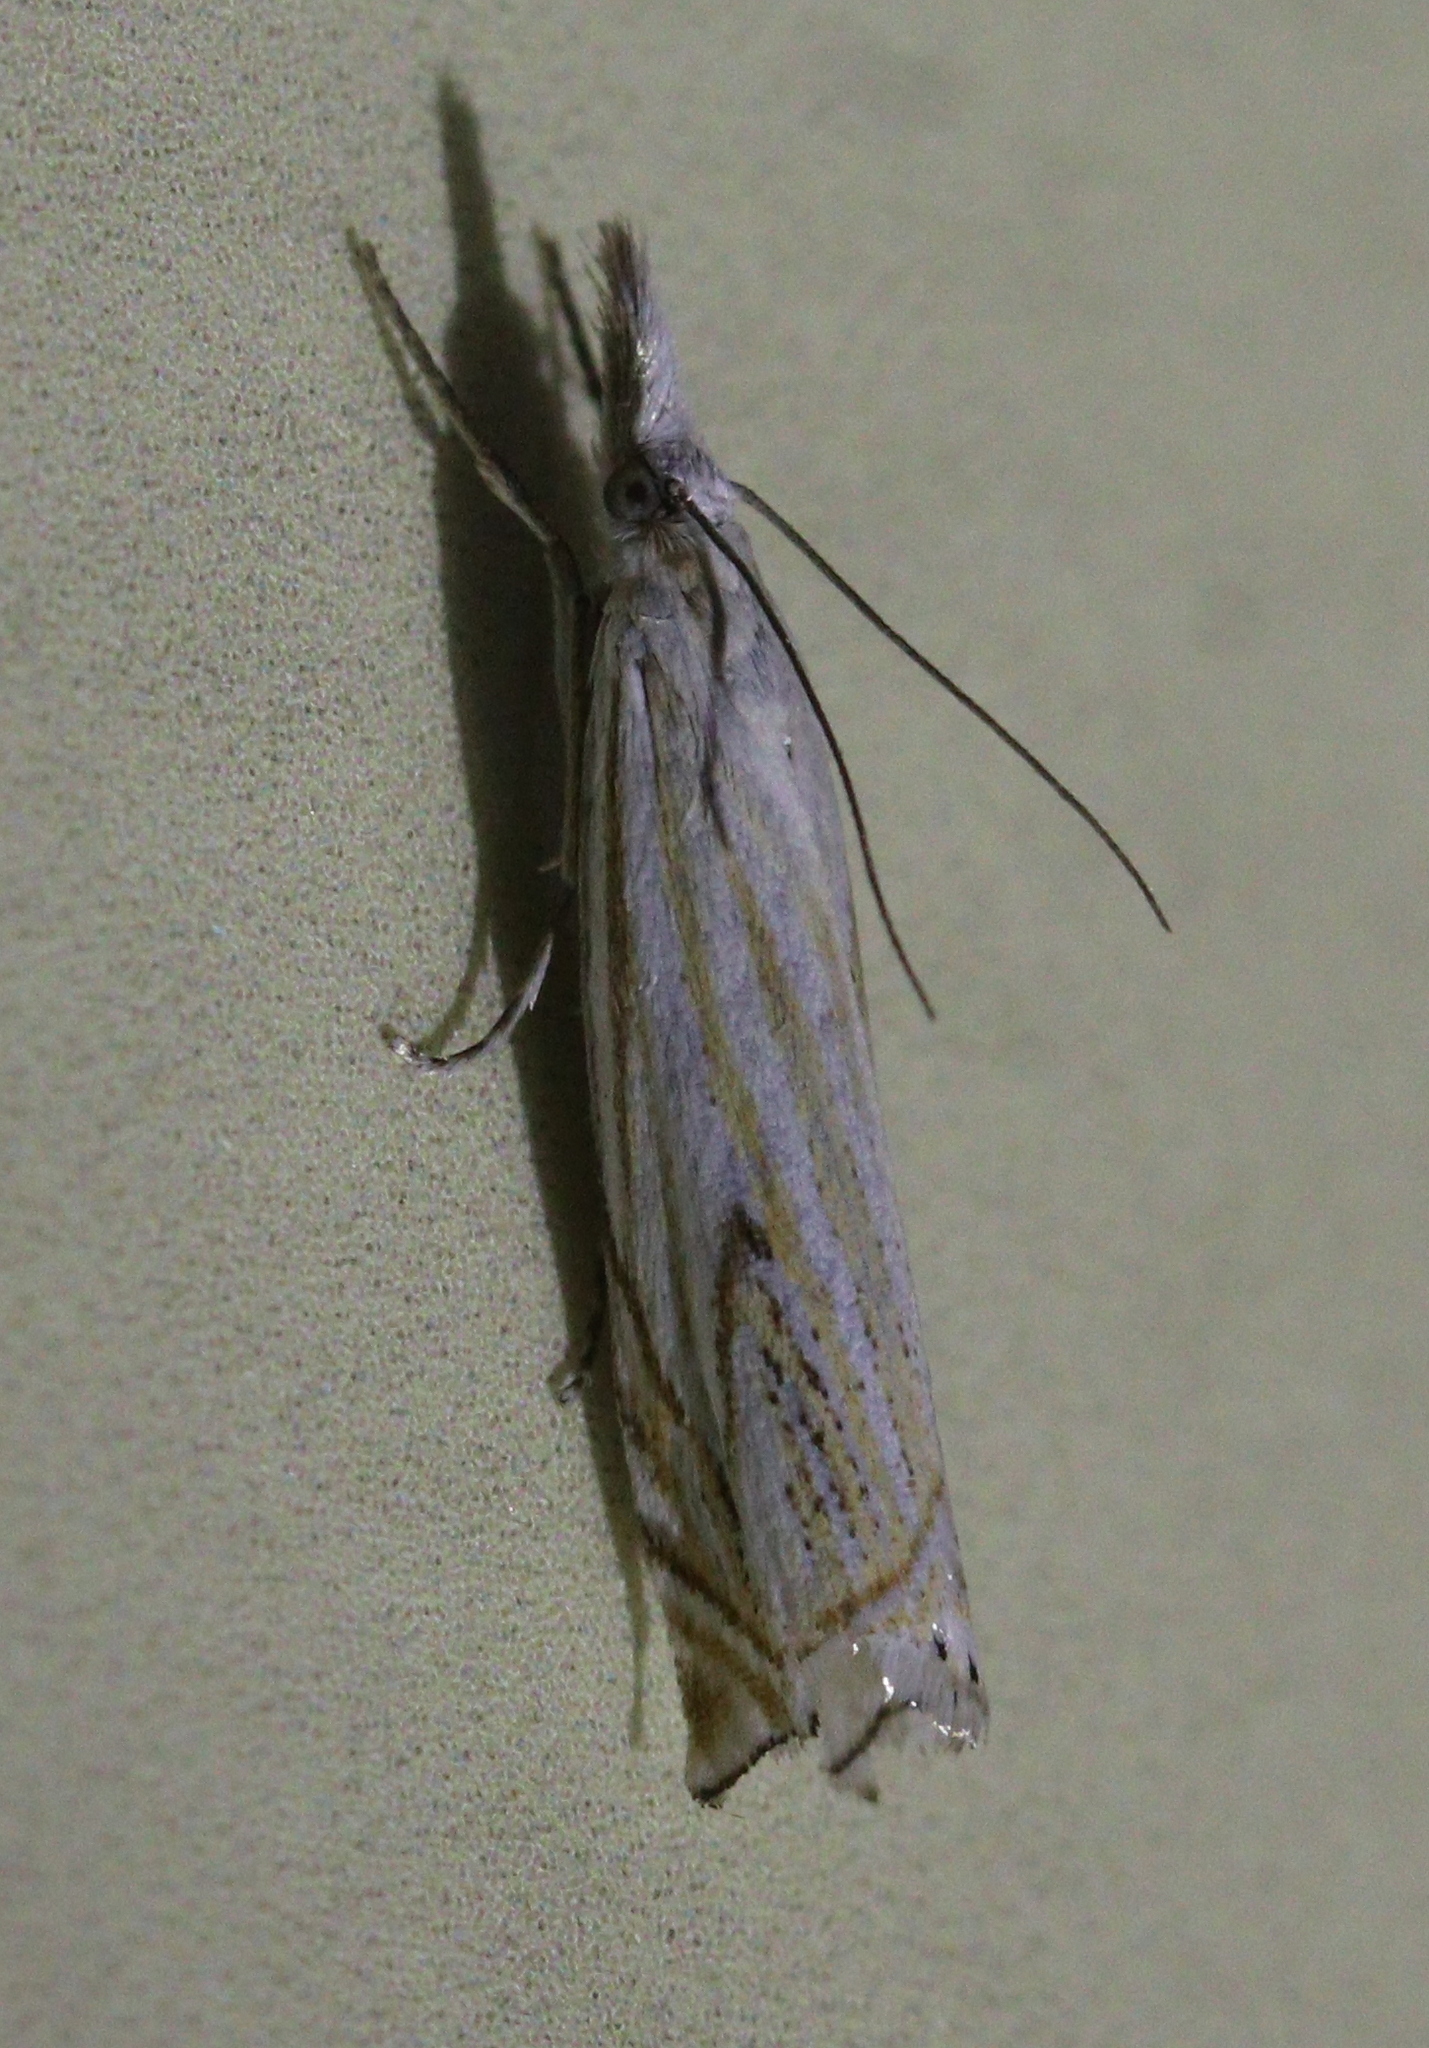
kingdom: Animalia
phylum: Arthropoda
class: Insecta
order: Lepidoptera
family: Crambidae
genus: Crambus
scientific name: Crambus nemorella
